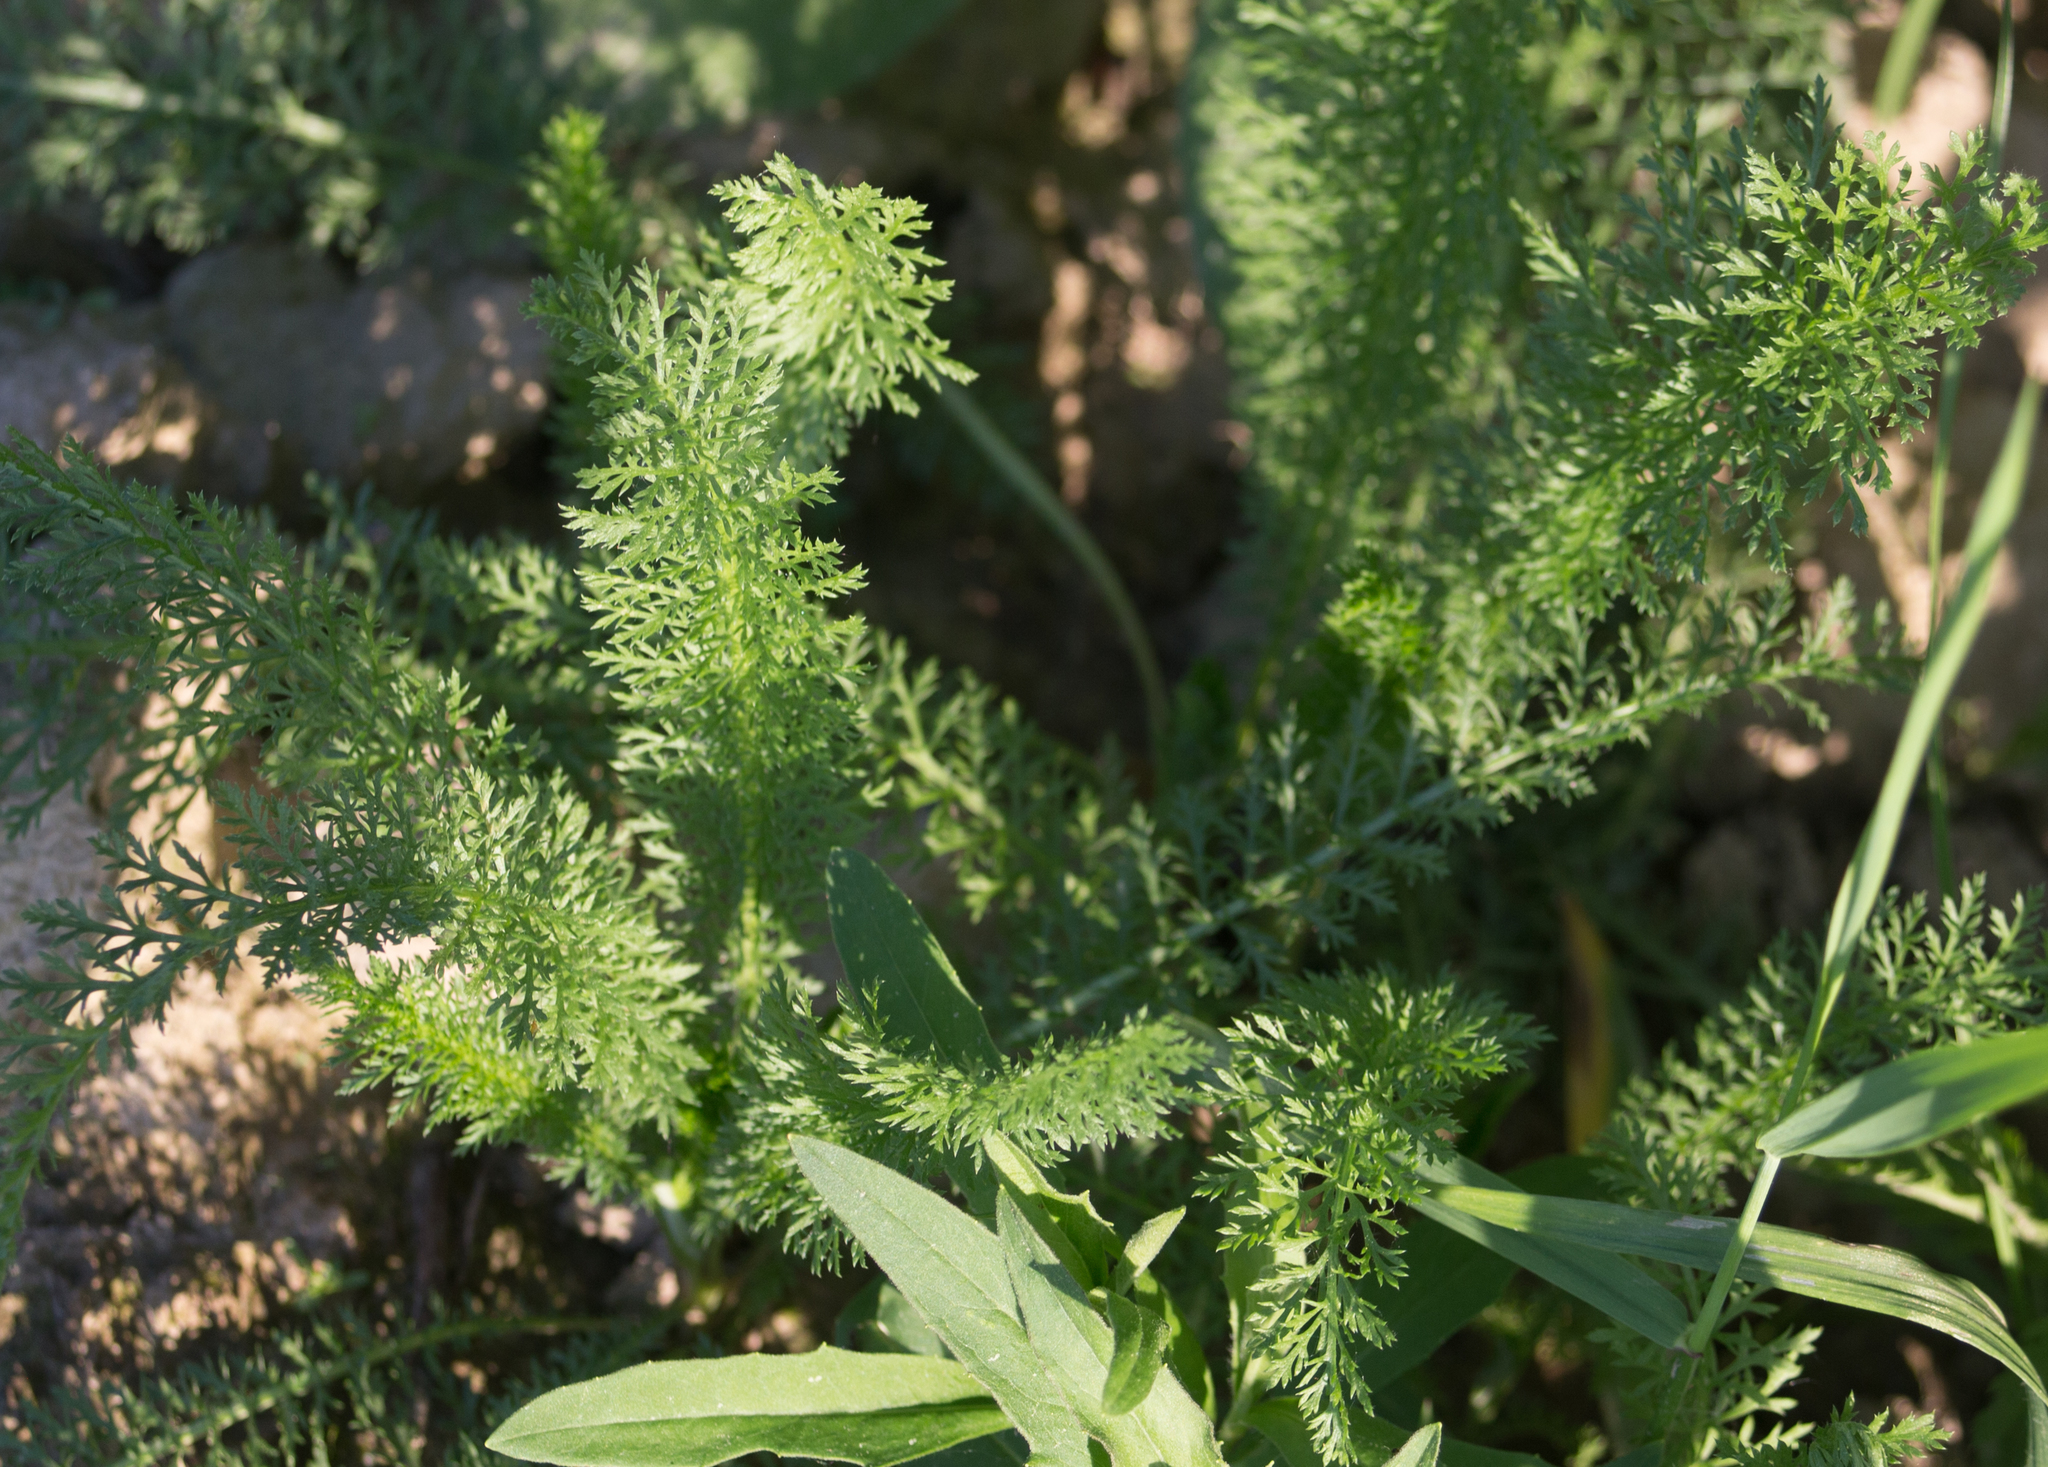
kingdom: Plantae
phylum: Tracheophyta
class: Magnoliopsida
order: Asterales
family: Asteraceae
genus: Achillea
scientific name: Achillea millefolium
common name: Yarrow
